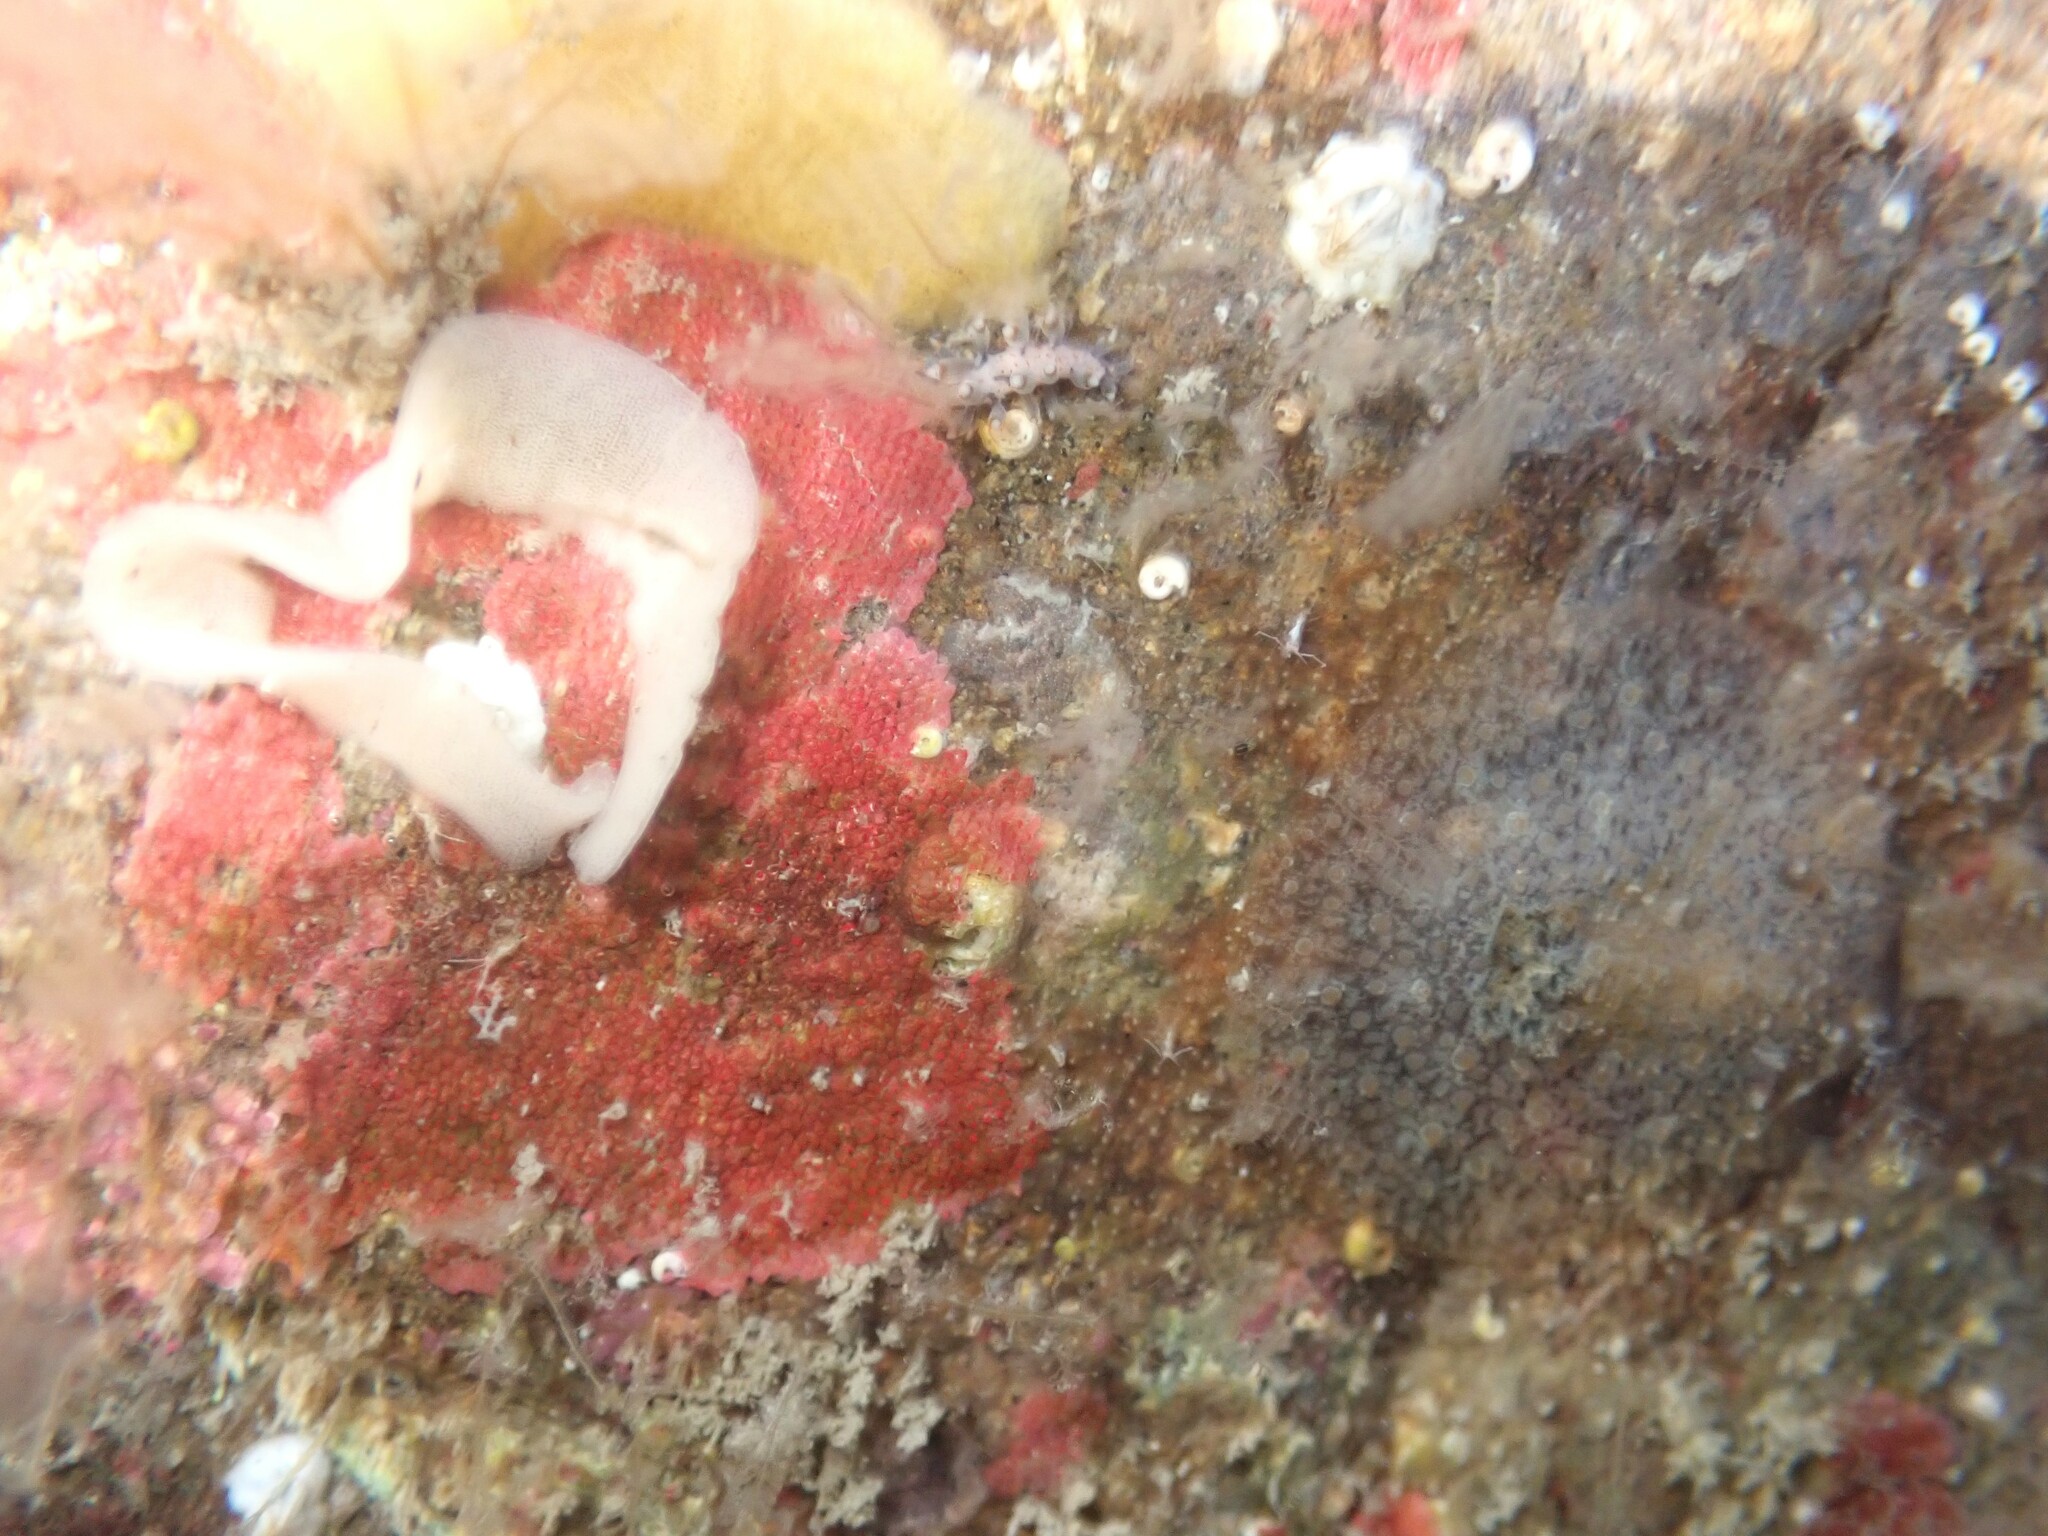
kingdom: Animalia
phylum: Mollusca
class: Gastropoda
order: Nudibranchia
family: Onchidorididae
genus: Acanthodoris
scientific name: Acanthodoris mollicella
